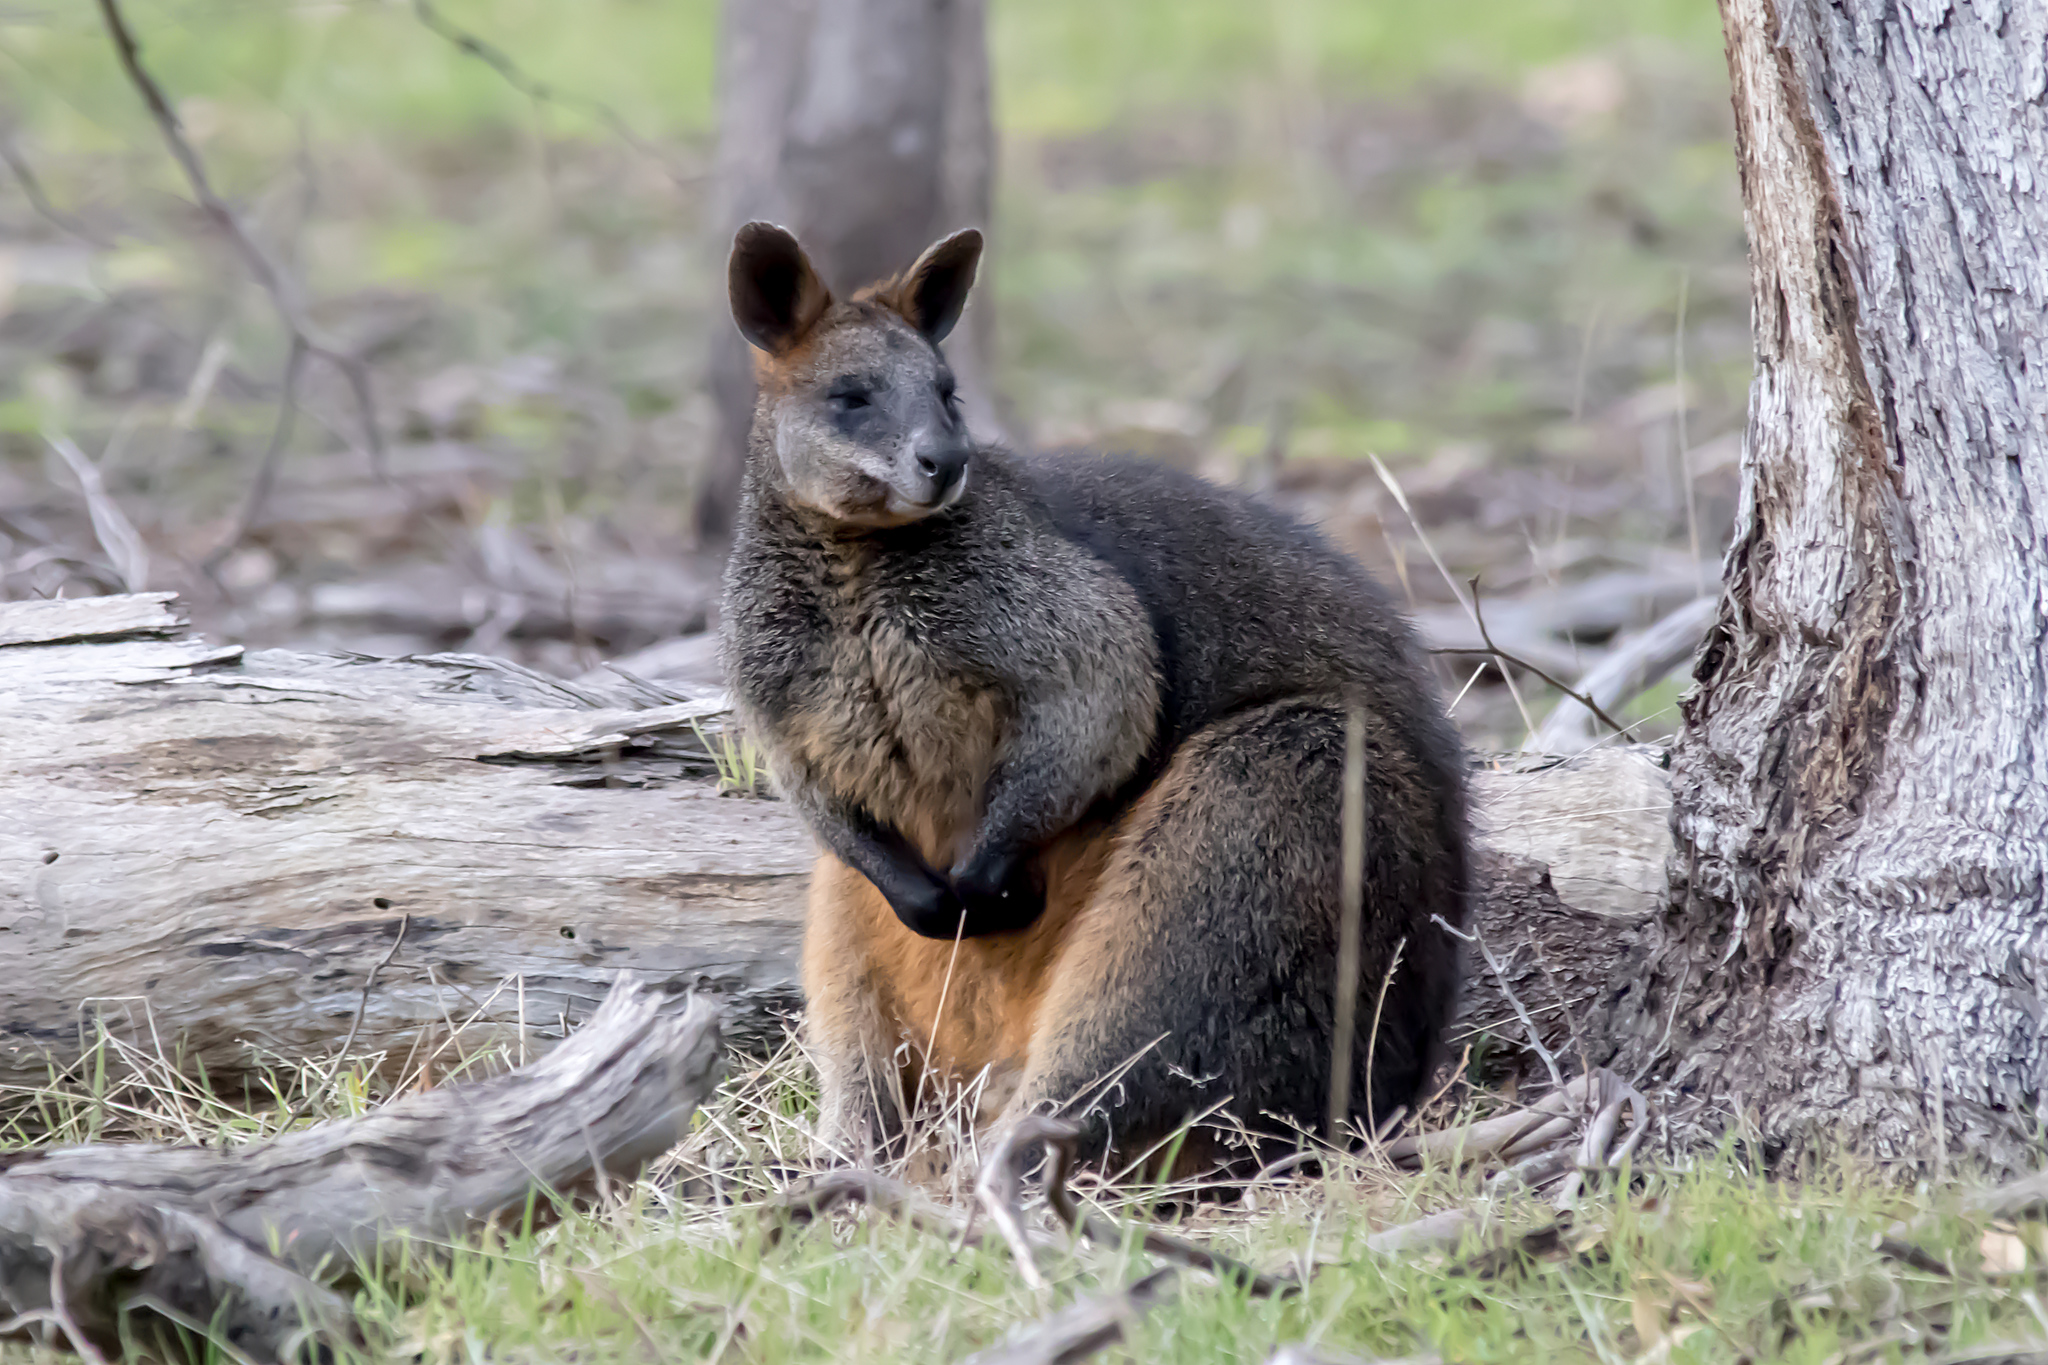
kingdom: Animalia
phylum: Chordata
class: Mammalia
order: Diprotodontia
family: Macropodidae
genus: Wallabia
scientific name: Wallabia bicolor
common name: Swamp wallaby
